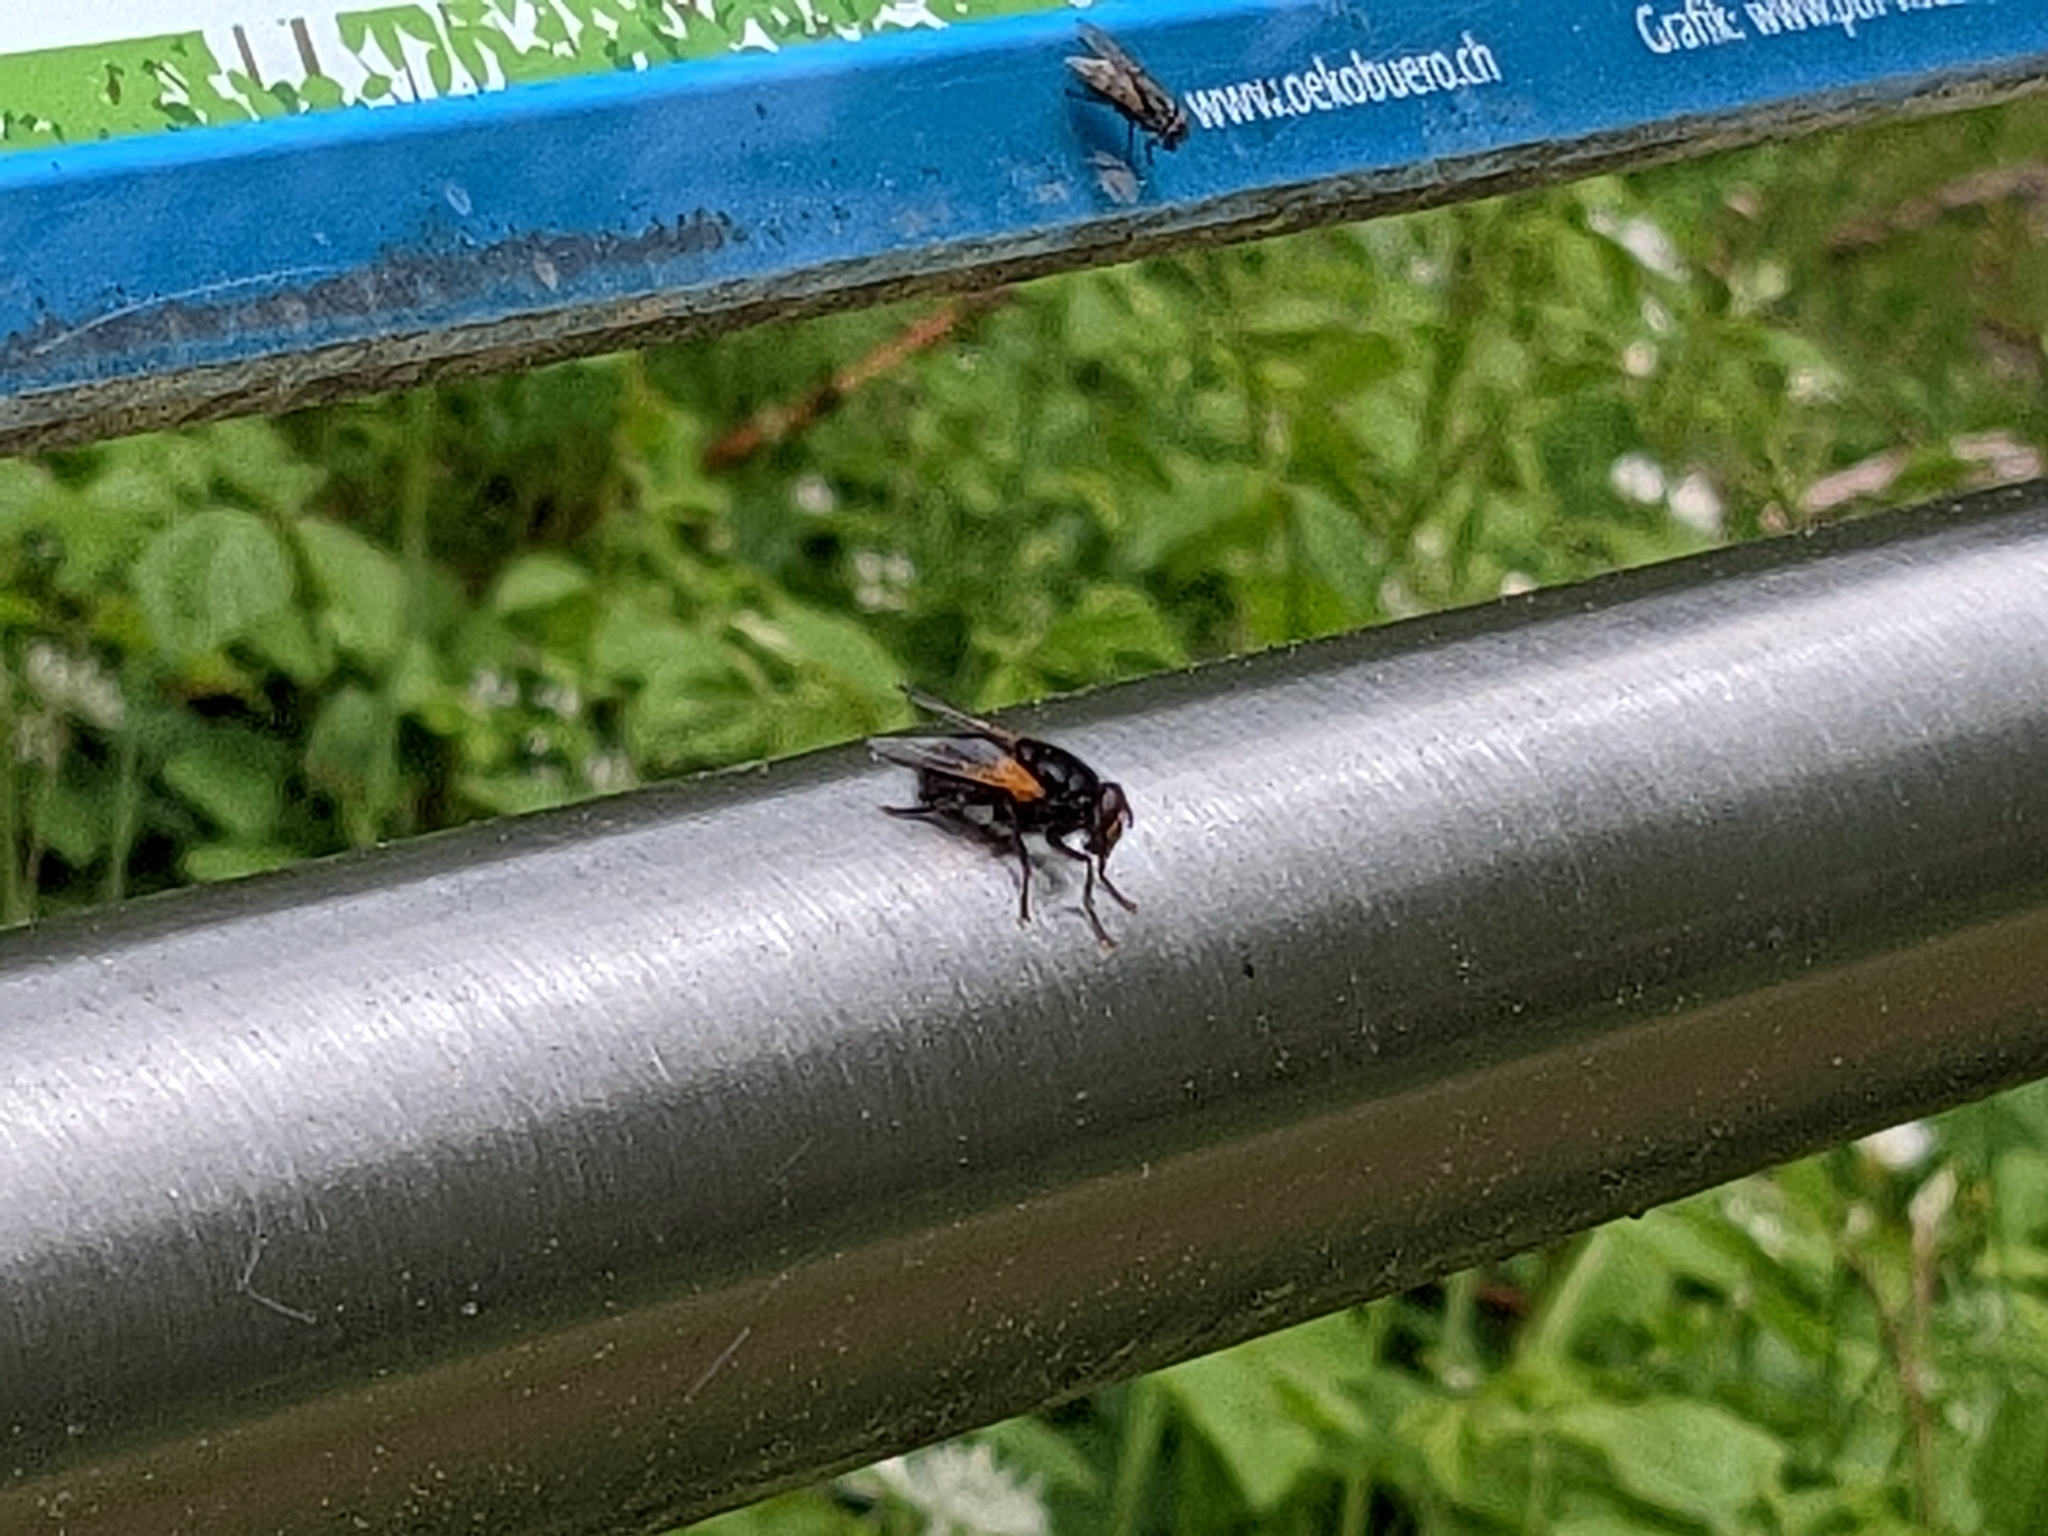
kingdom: Animalia
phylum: Arthropoda
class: Insecta
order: Diptera
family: Muscidae
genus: Mesembrina
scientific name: Mesembrina meridiana
